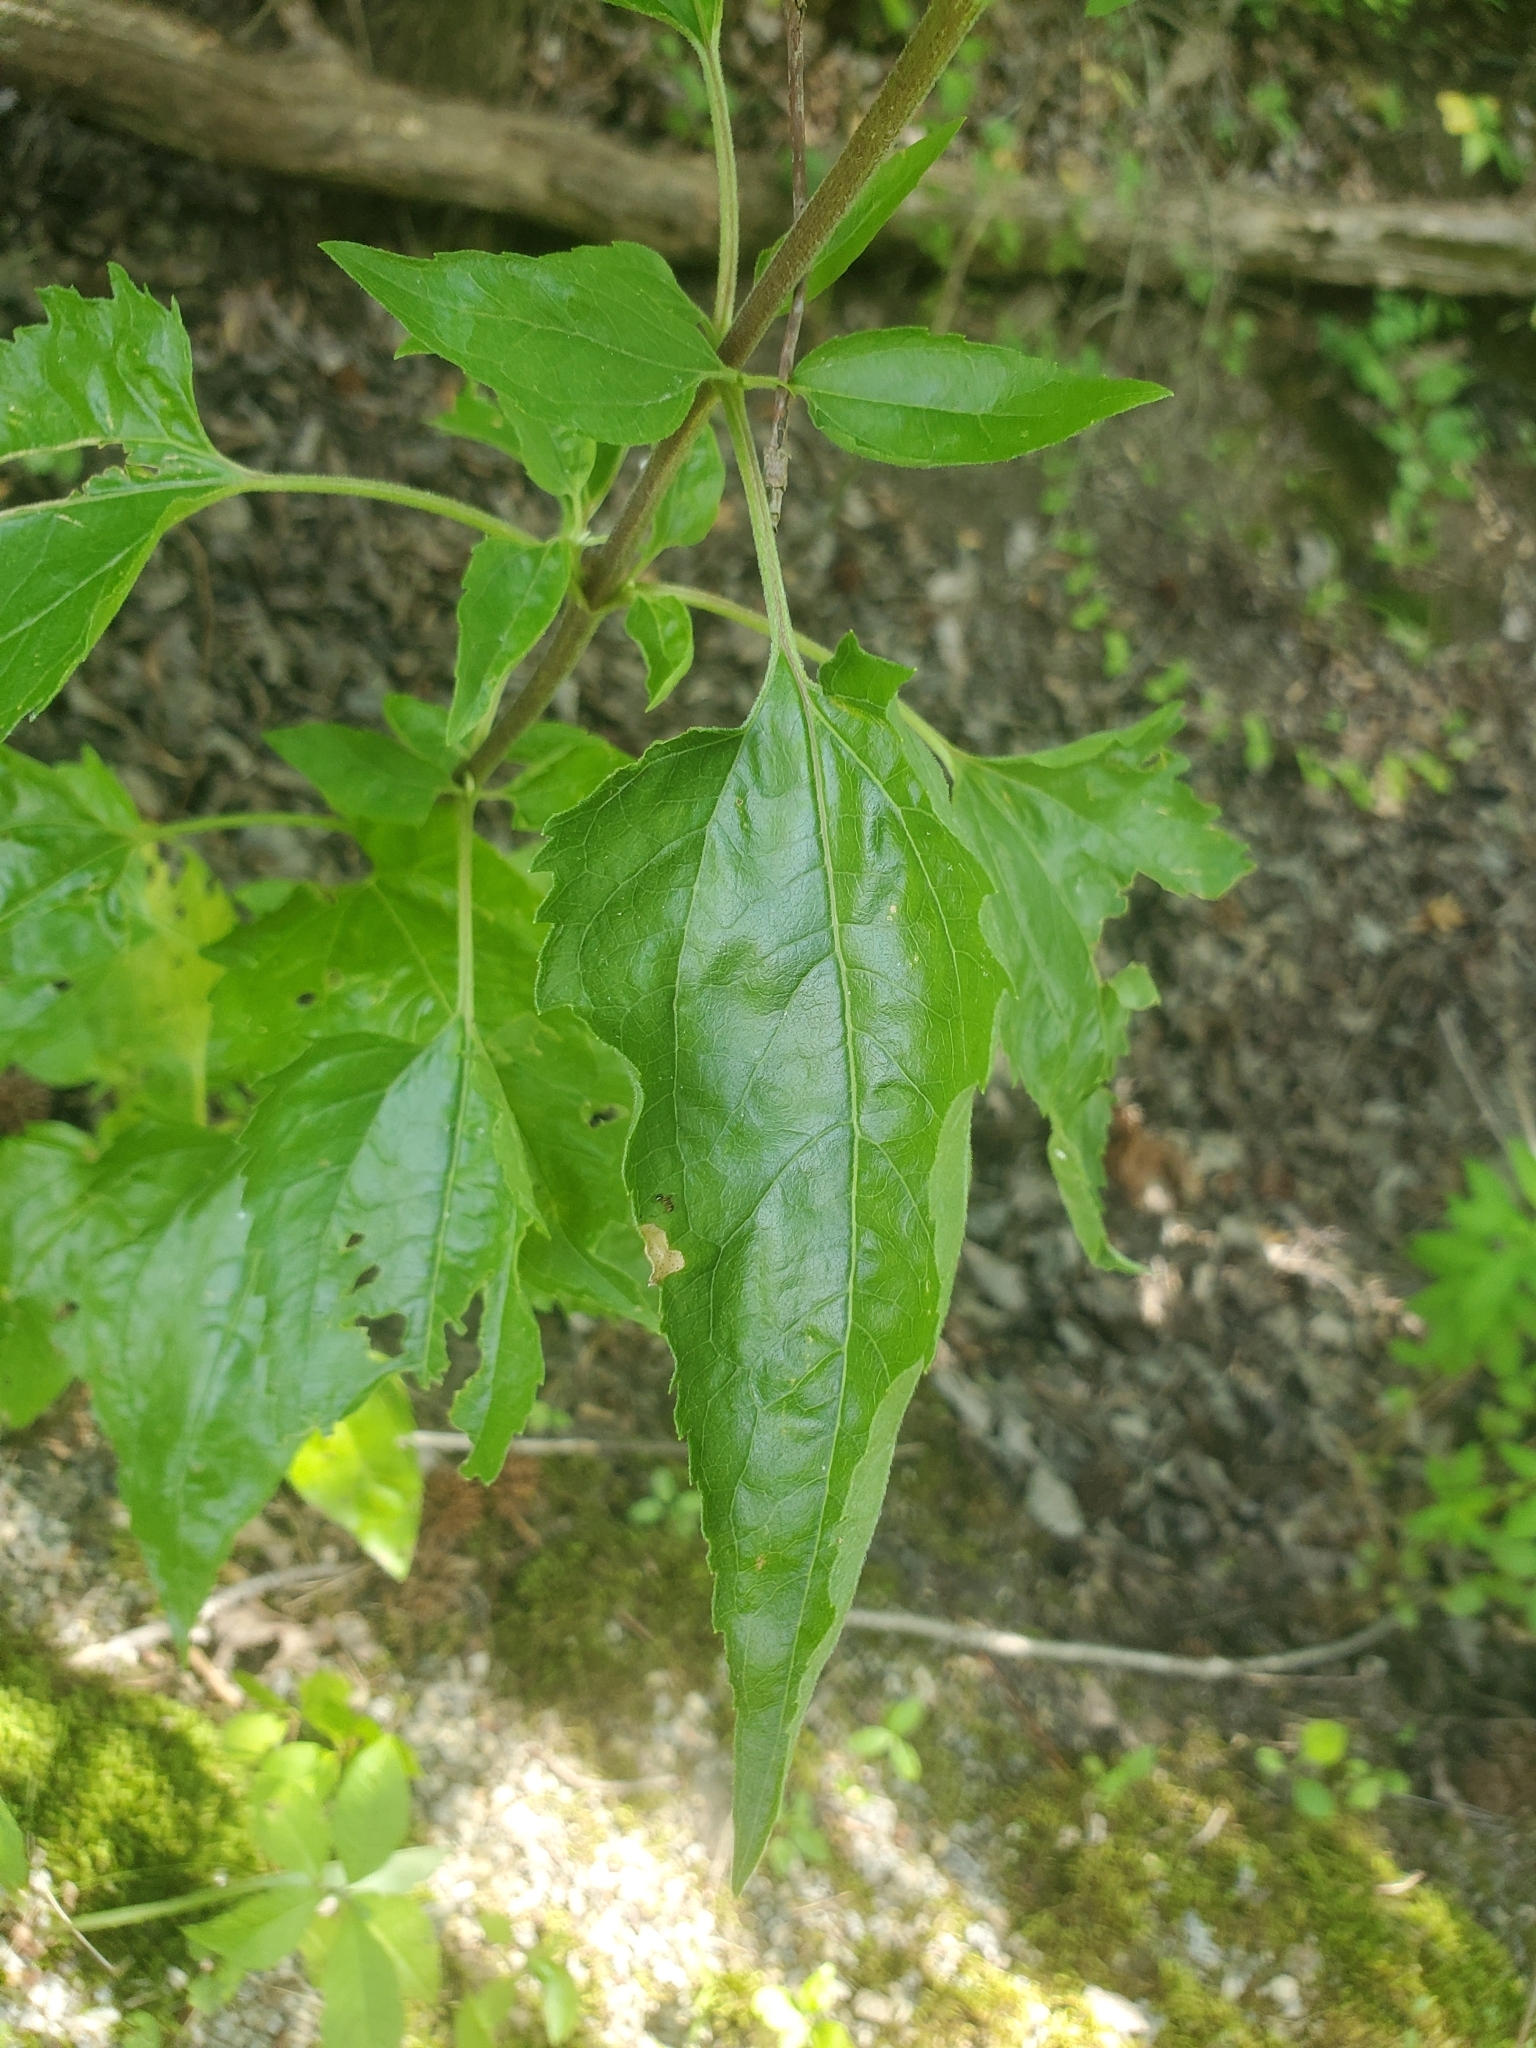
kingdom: Plantae
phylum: Tracheophyta
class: Magnoliopsida
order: Asterales
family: Asteraceae
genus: Eupatorium
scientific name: Eupatorium serotinum
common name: Late boneset
